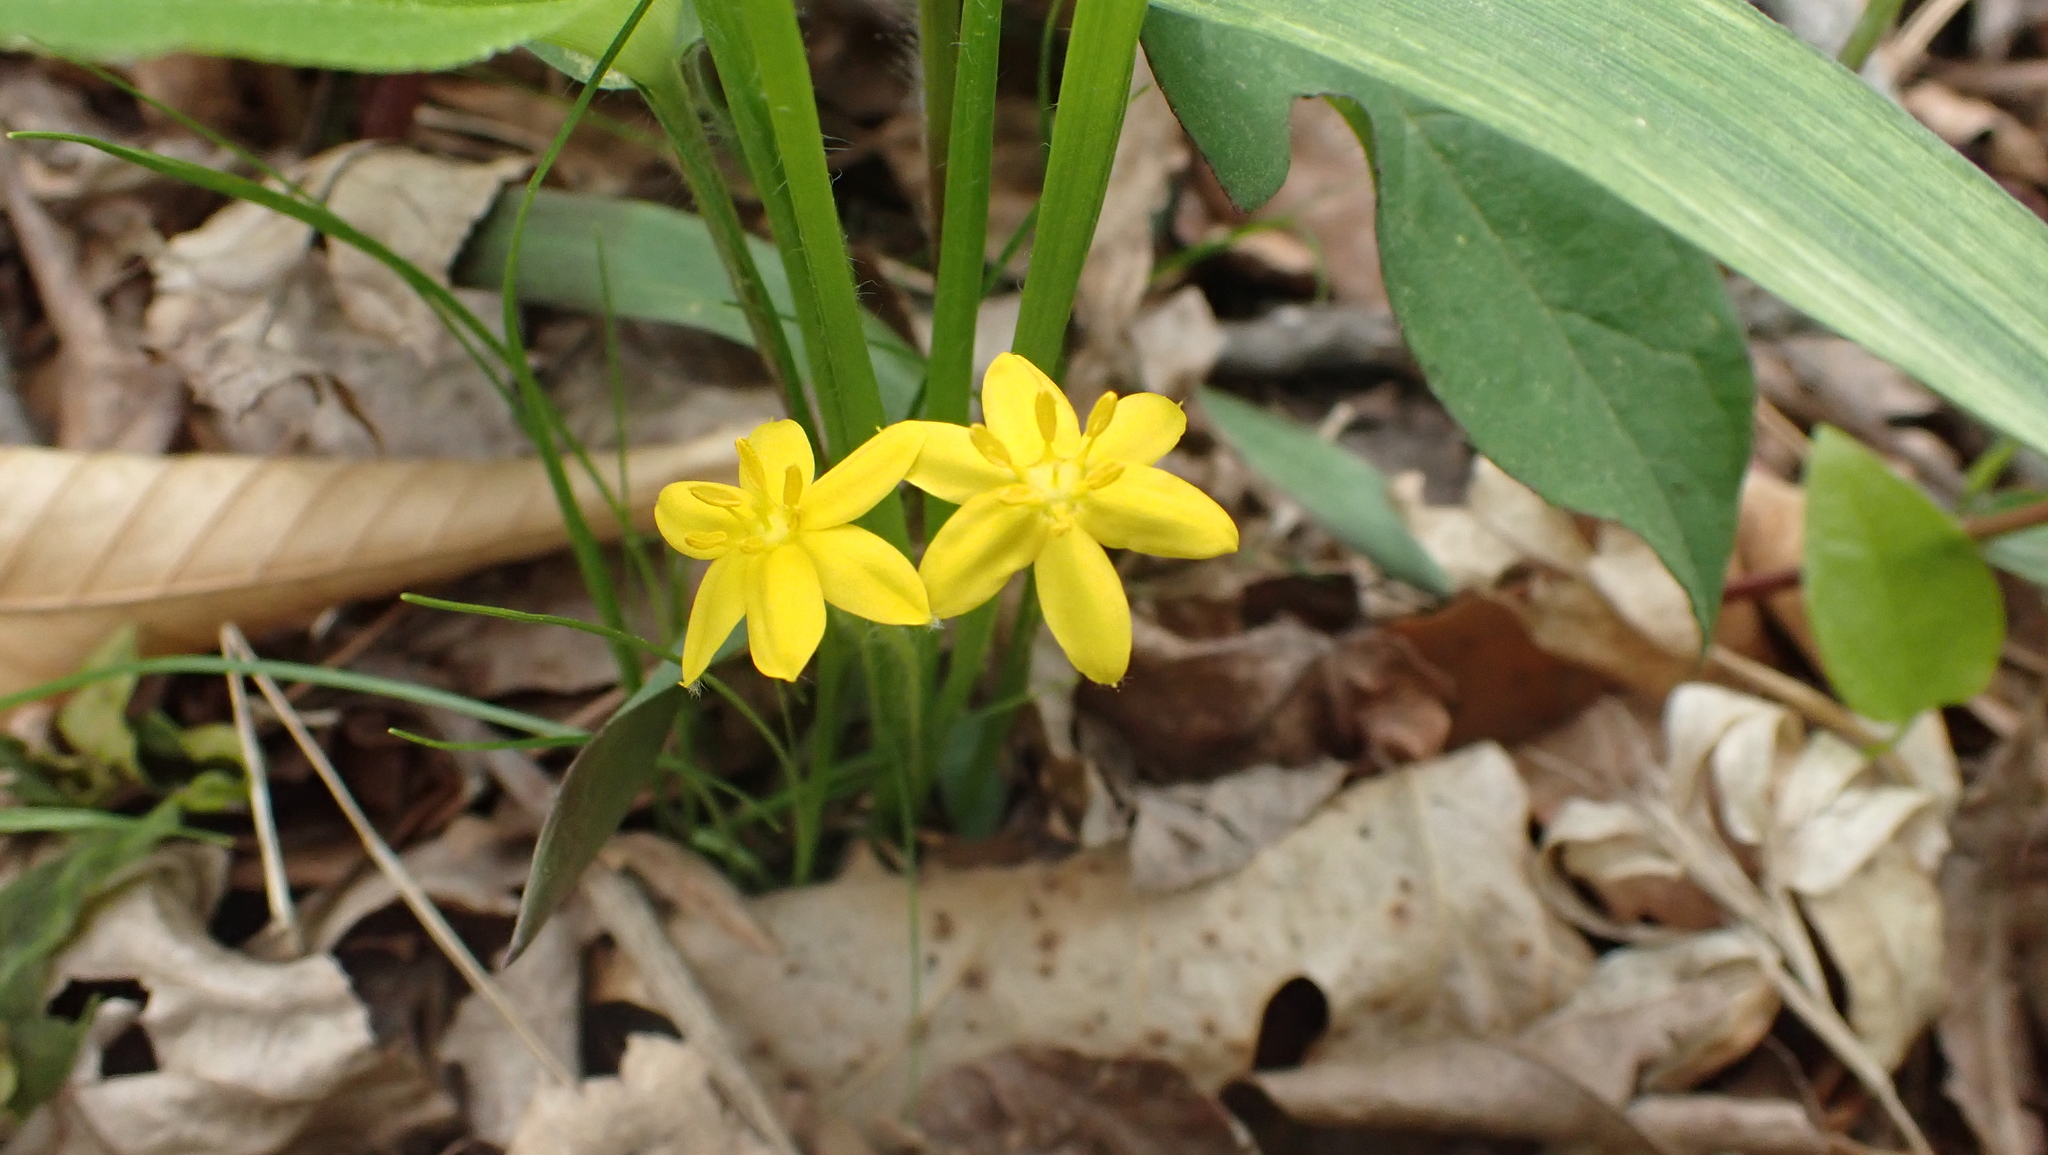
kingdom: Plantae
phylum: Tracheophyta
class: Liliopsida
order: Asparagales
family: Hypoxidaceae
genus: Hypoxis
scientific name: Hypoxis hirsuta
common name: Common goldstar
